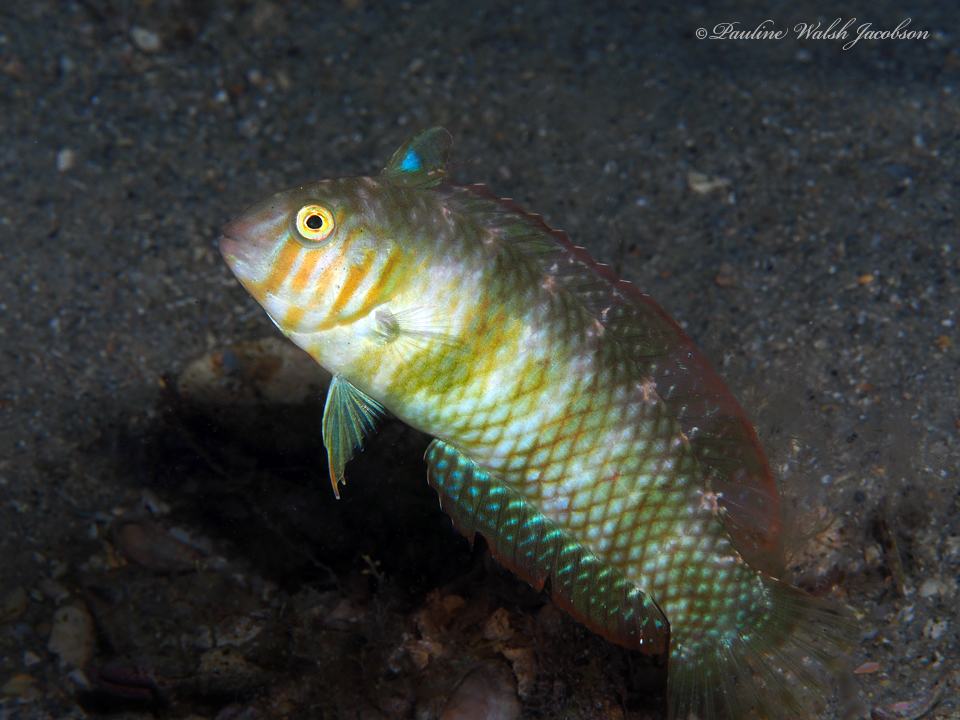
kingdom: Animalia
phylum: Chordata
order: Perciformes
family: Labridae
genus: Xyrichtys
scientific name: Xyrichtys splendens
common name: Green razorfish
